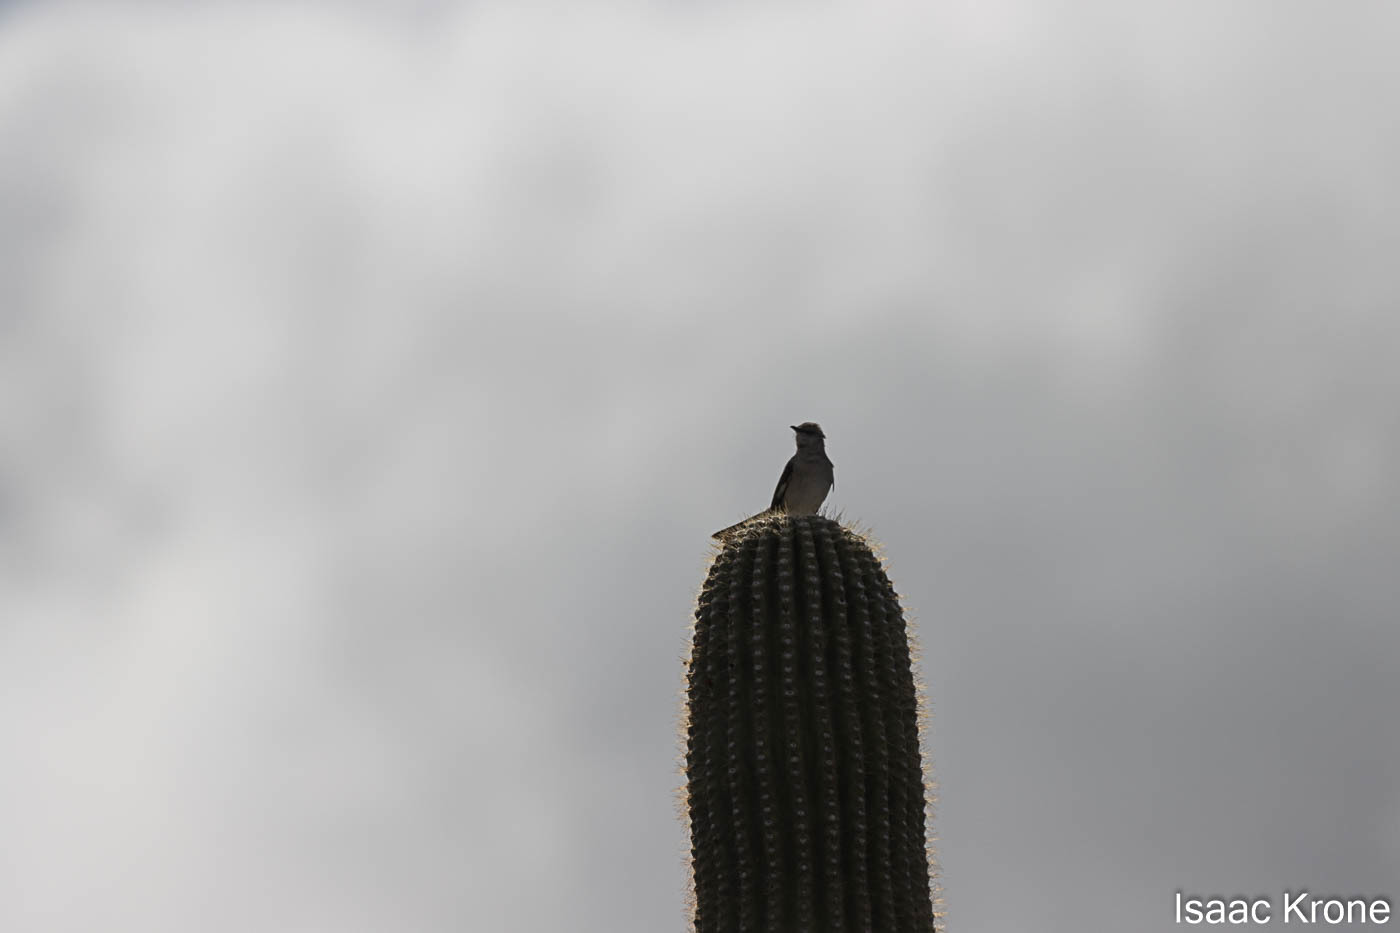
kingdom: Animalia
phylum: Chordata
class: Aves
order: Passeriformes
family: Mimidae
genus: Mimus
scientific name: Mimus polyglottos
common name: Northern mockingbird
